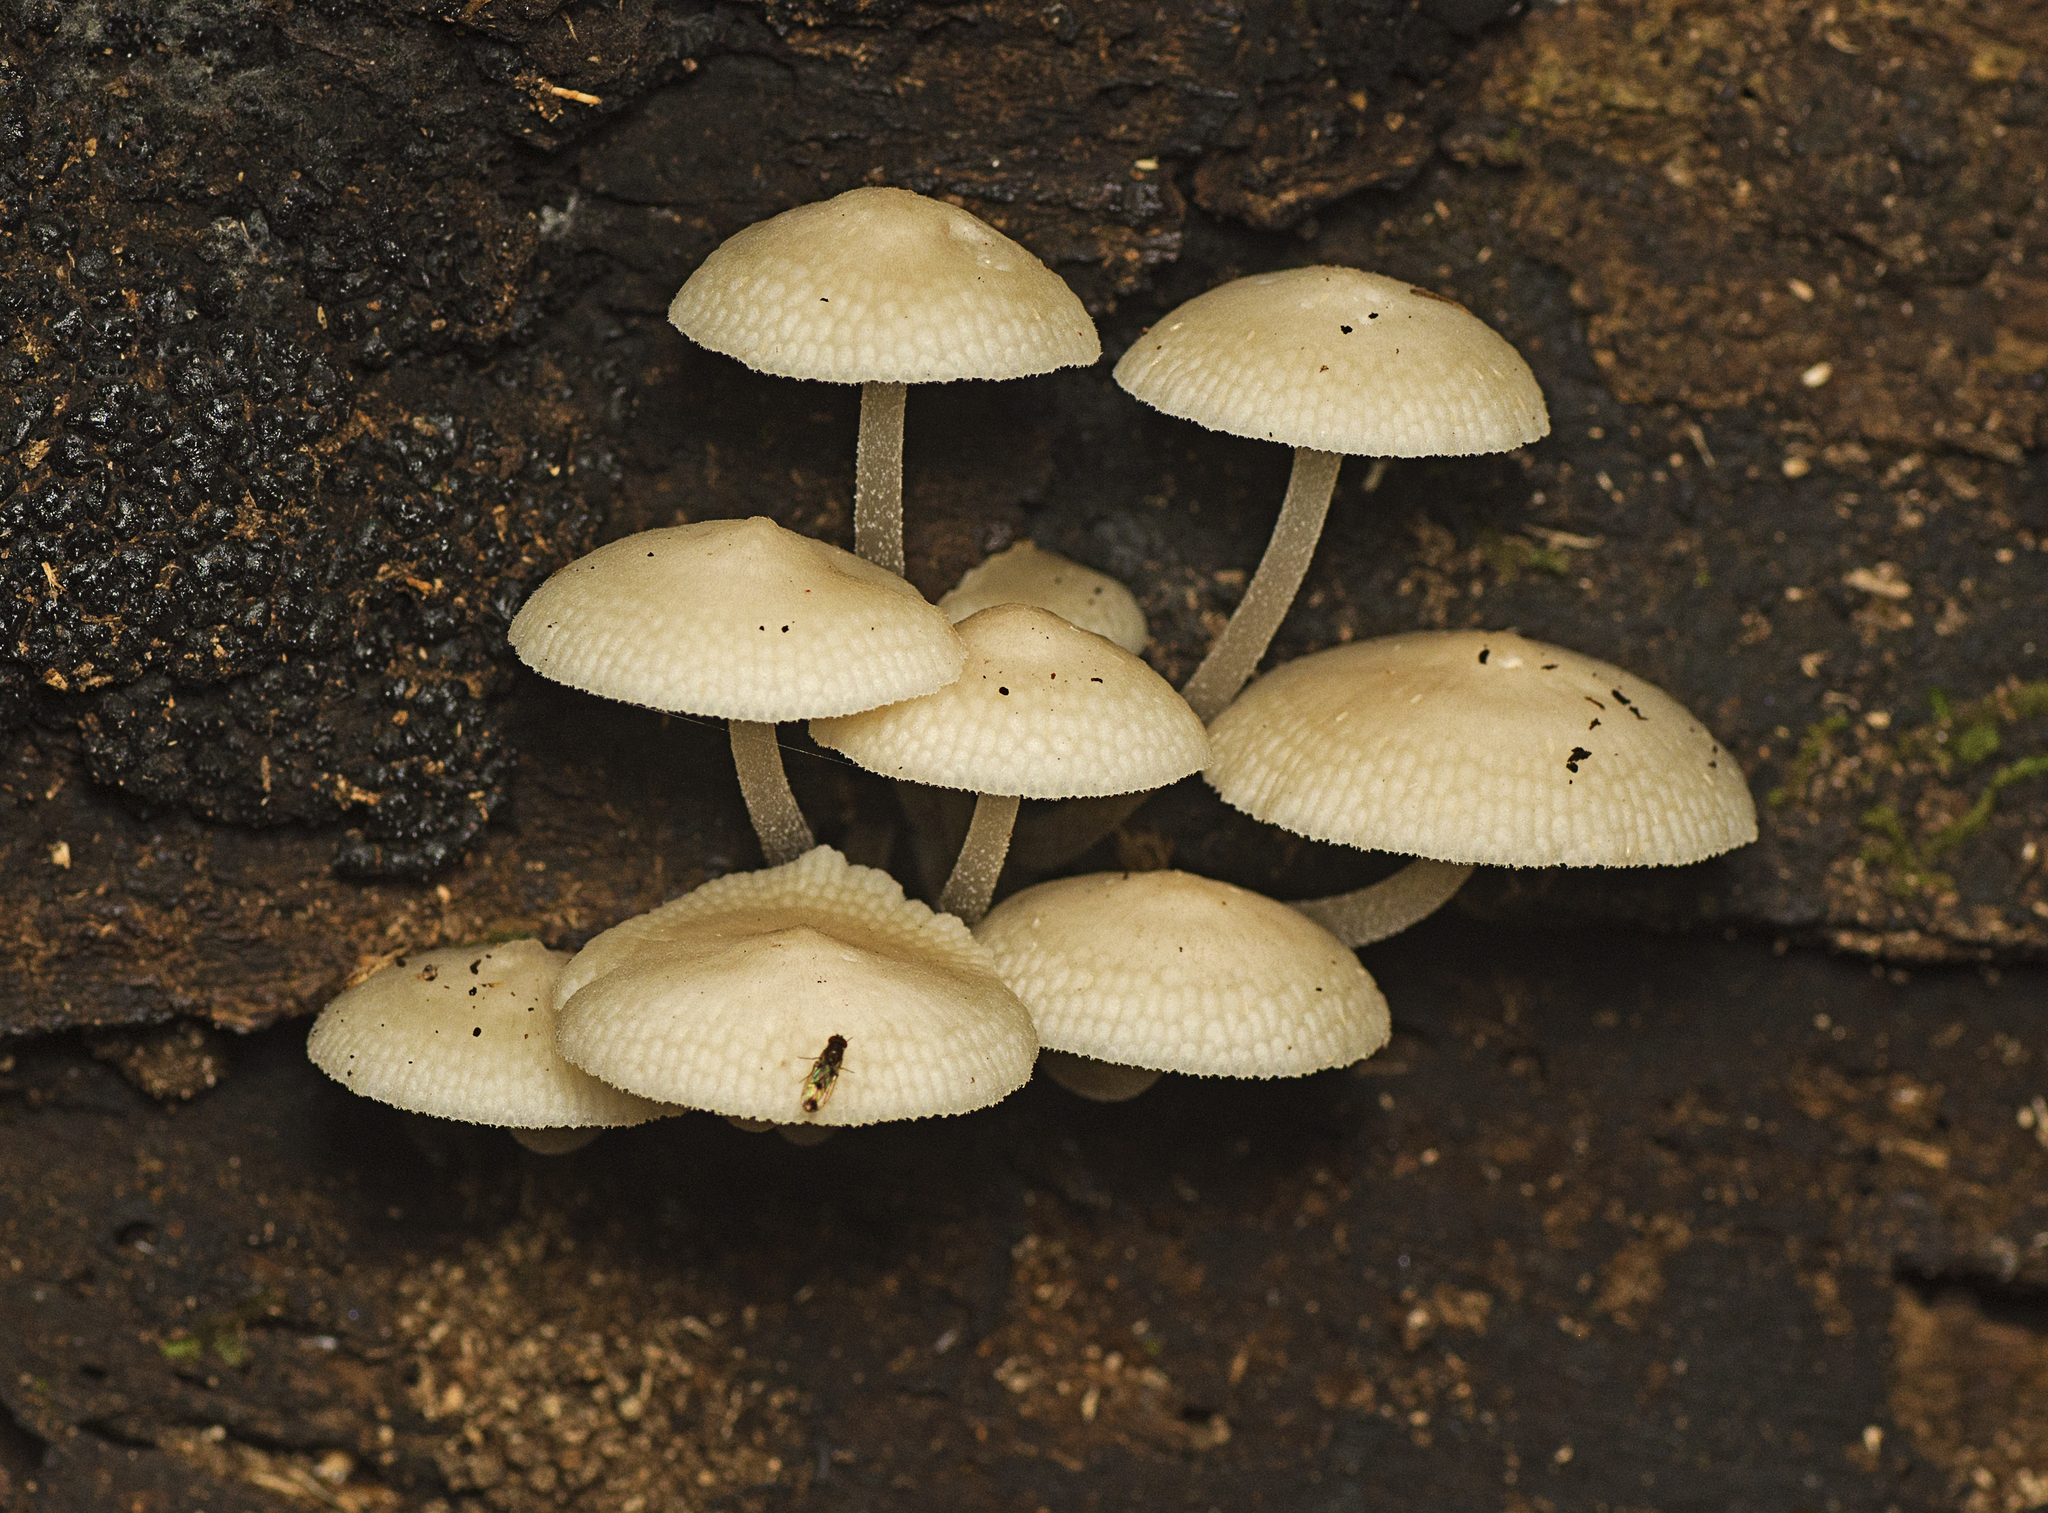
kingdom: Fungi
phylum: Basidiomycota
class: Agaricomycetes
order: Agaricales
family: Mycenaceae
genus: Filoboletus
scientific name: Filoboletus manipularis
